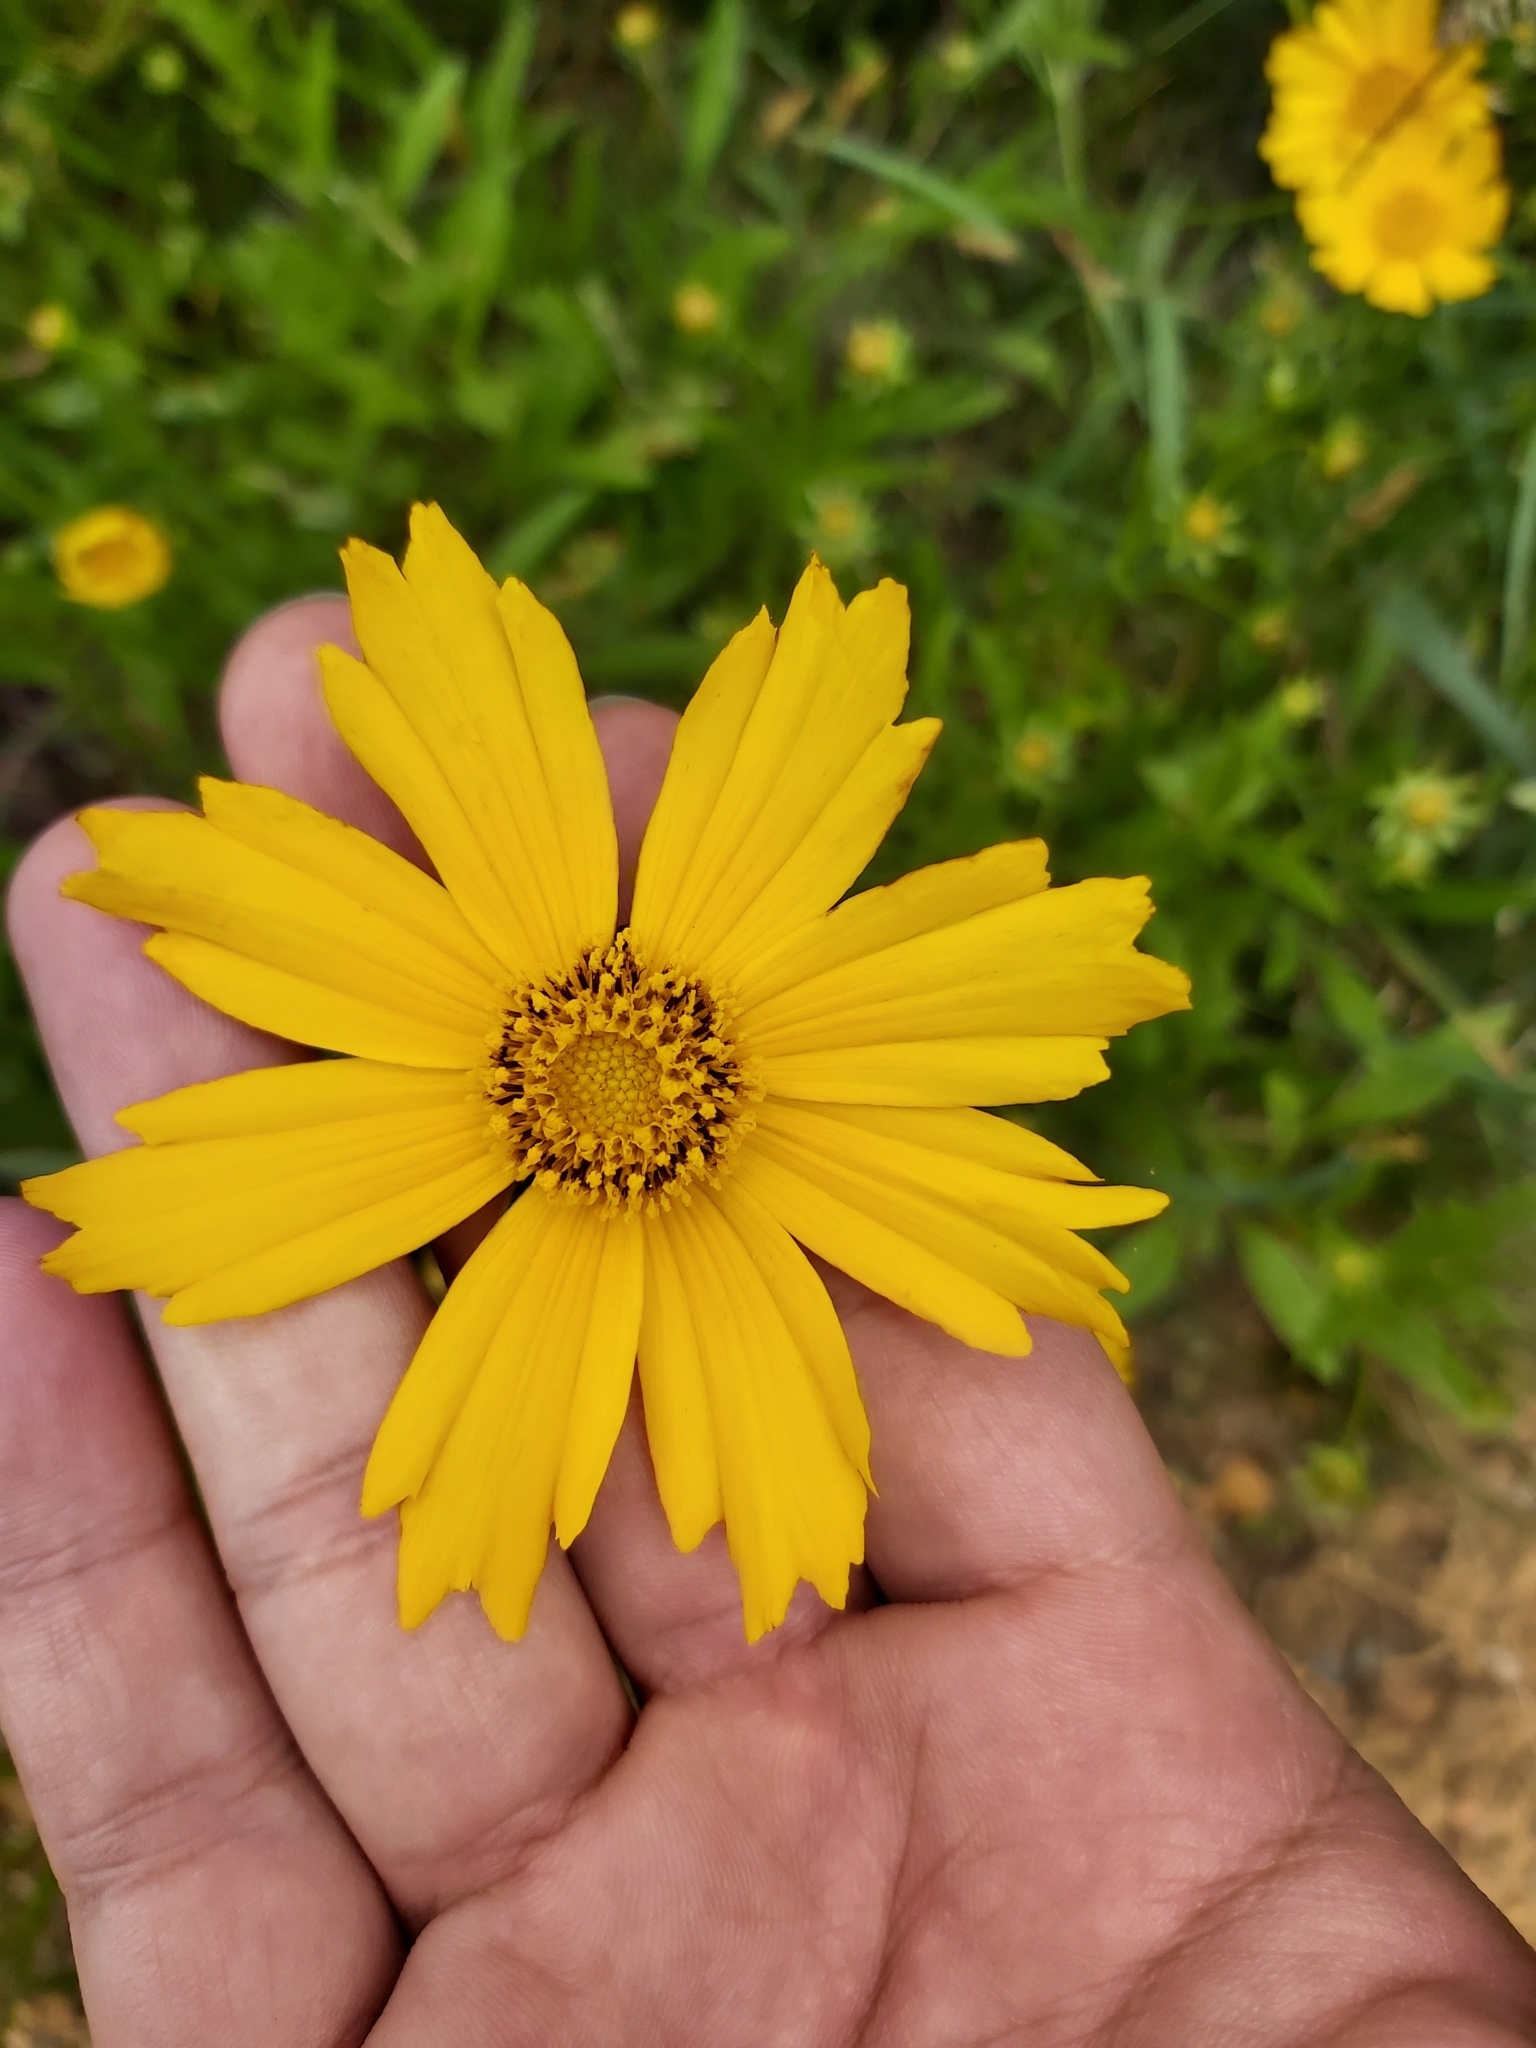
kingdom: Plantae
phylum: Tracheophyta
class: Magnoliopsida
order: Asterales
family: Asteraceae
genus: Coreopsis
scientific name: Coreopsis lanceolata
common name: Garden coreopsis
